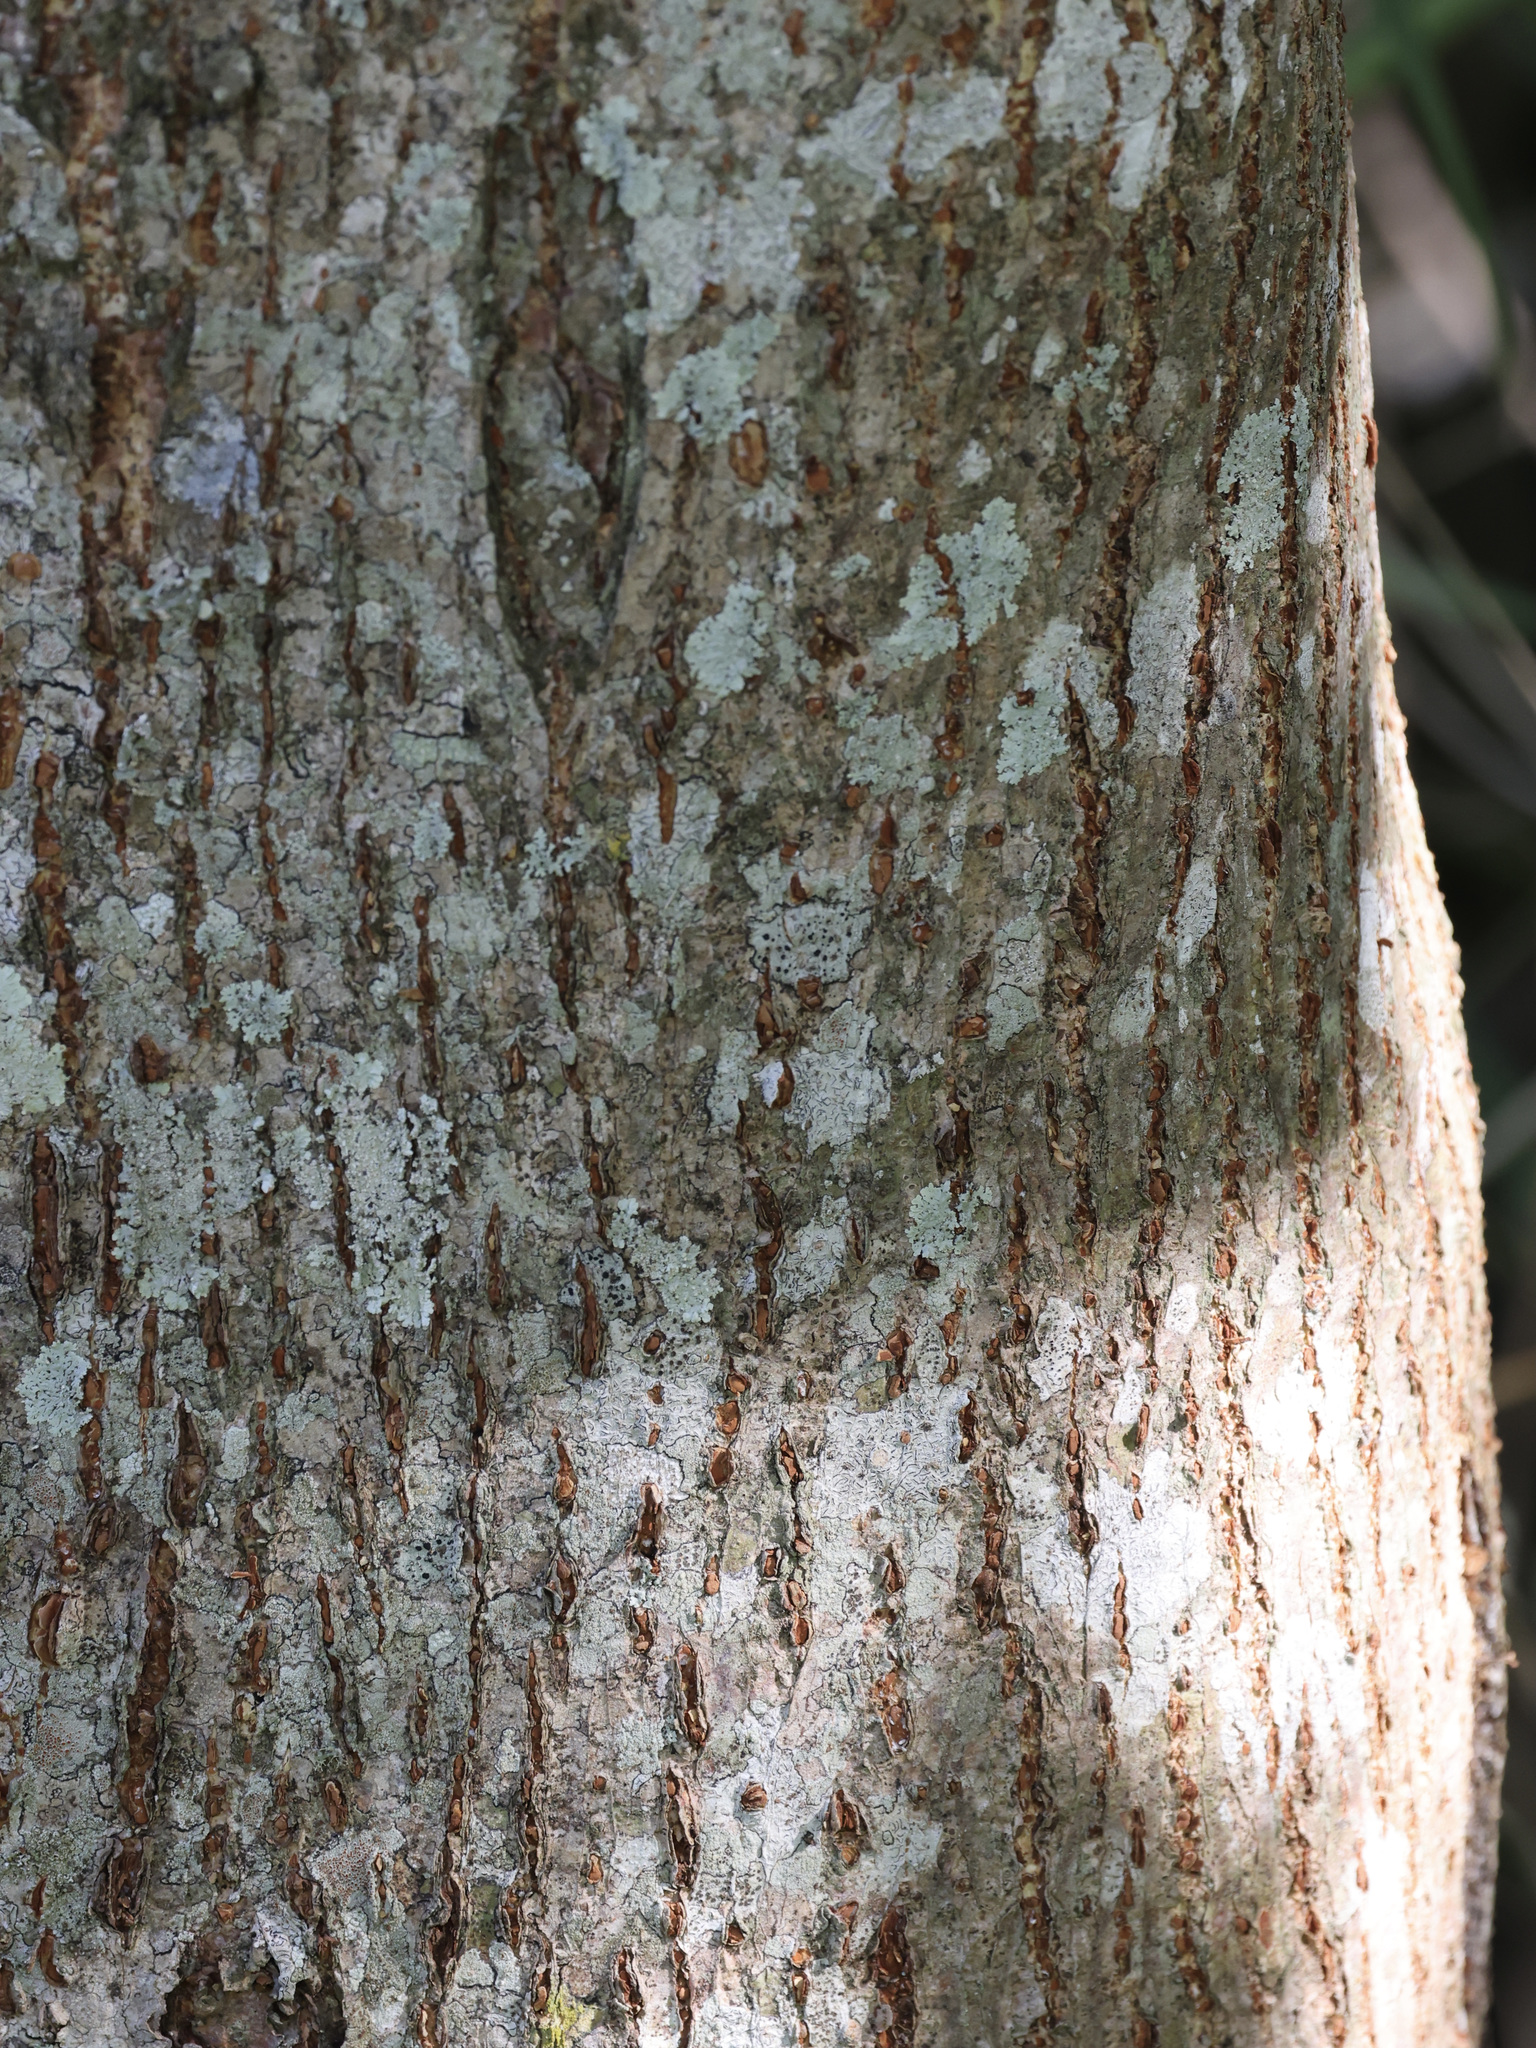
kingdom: Plantae
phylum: Tracheophyta
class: Magnoliopsida
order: Rosales
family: Moraceae
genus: Broussonetia
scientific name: Broussonetia papyrifera
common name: Paper mulberry
